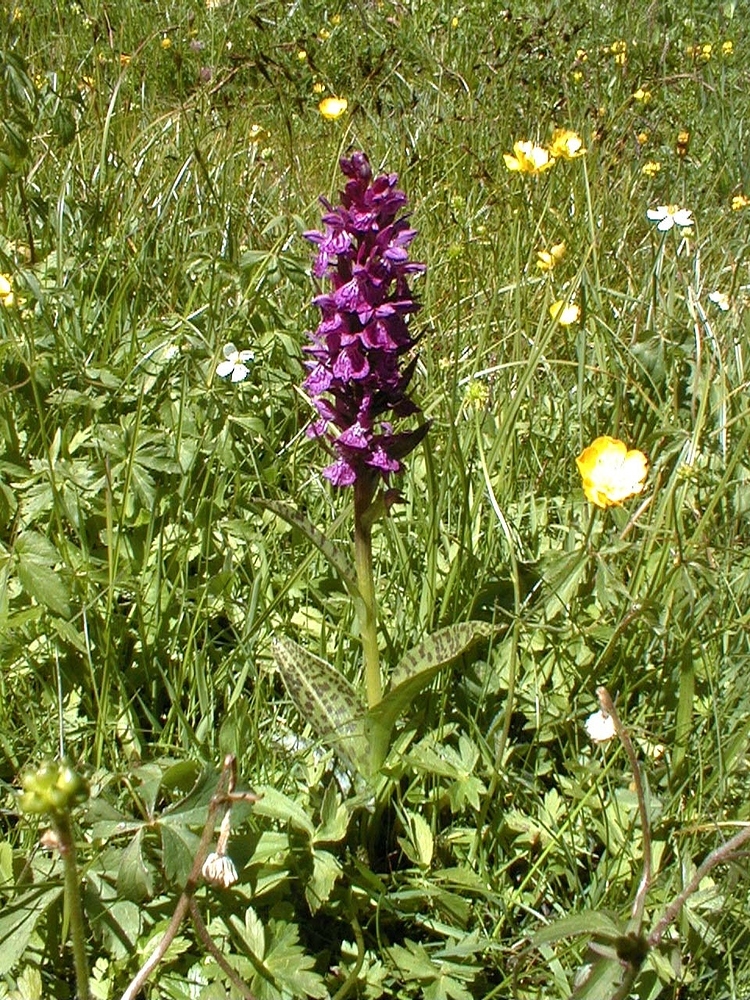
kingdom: Plantae
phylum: Tracheophyta
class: Liliopsida
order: Asparagales
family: Orchidaceae
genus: Dactylorhiza
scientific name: Dactylorhiza majalis
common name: Marsh orchid
